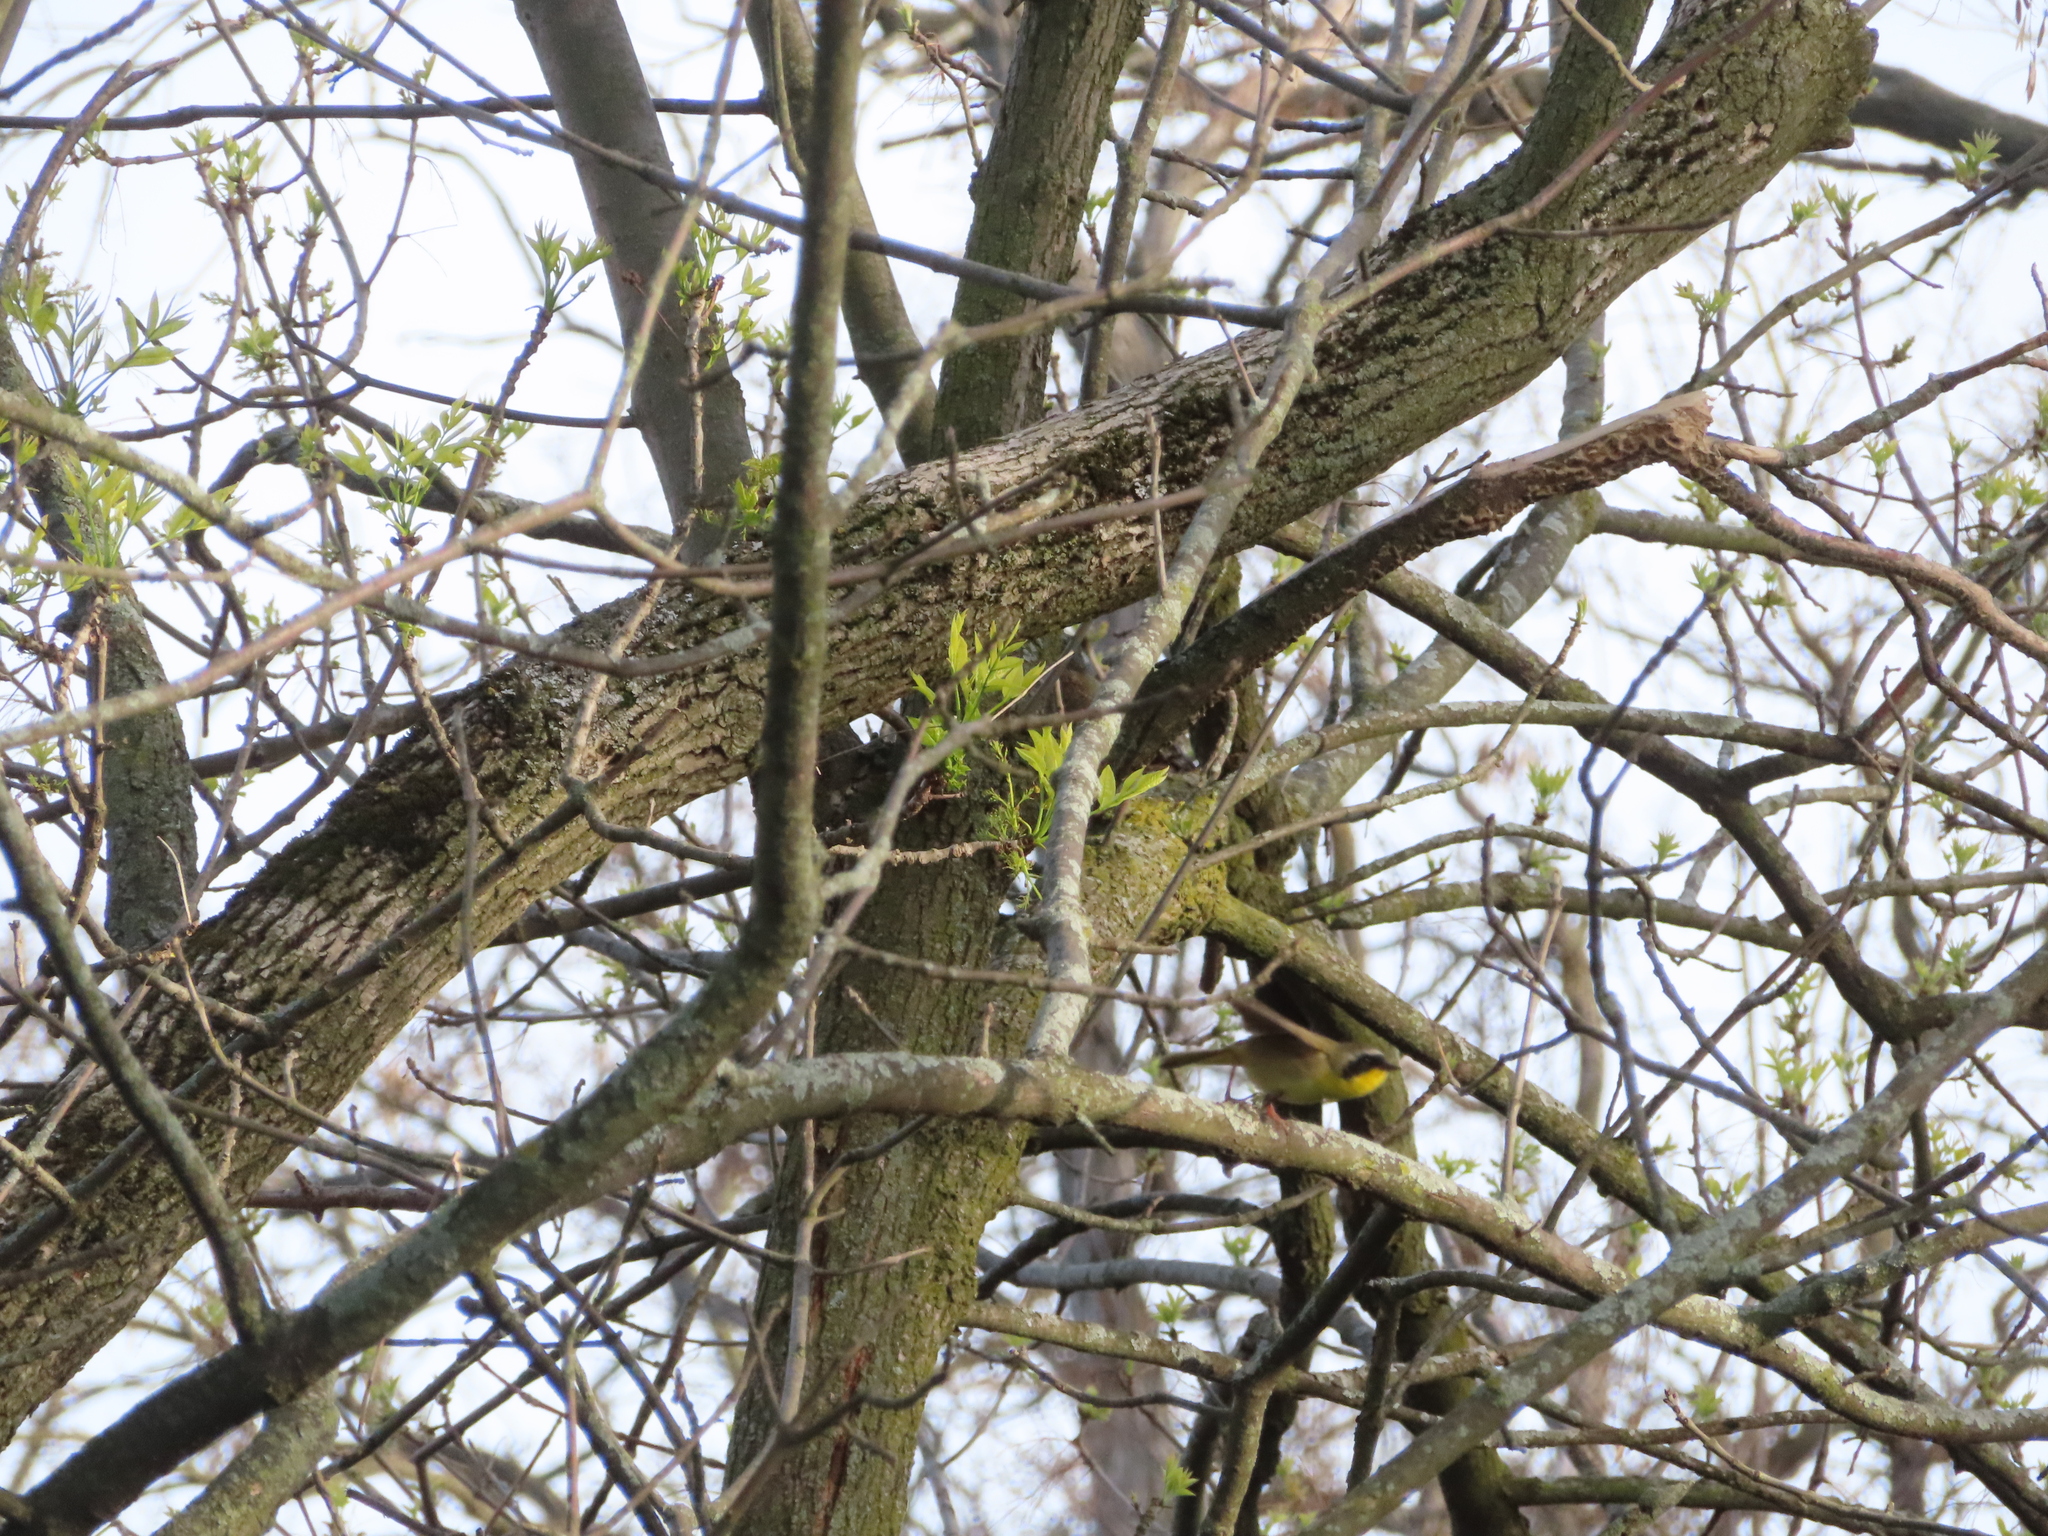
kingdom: Animalia
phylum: Chordata
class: Aves
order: Passeriformes
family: Parulidae
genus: Geothlypis
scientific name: Geothlypis trichas
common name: Common yellowthroat
